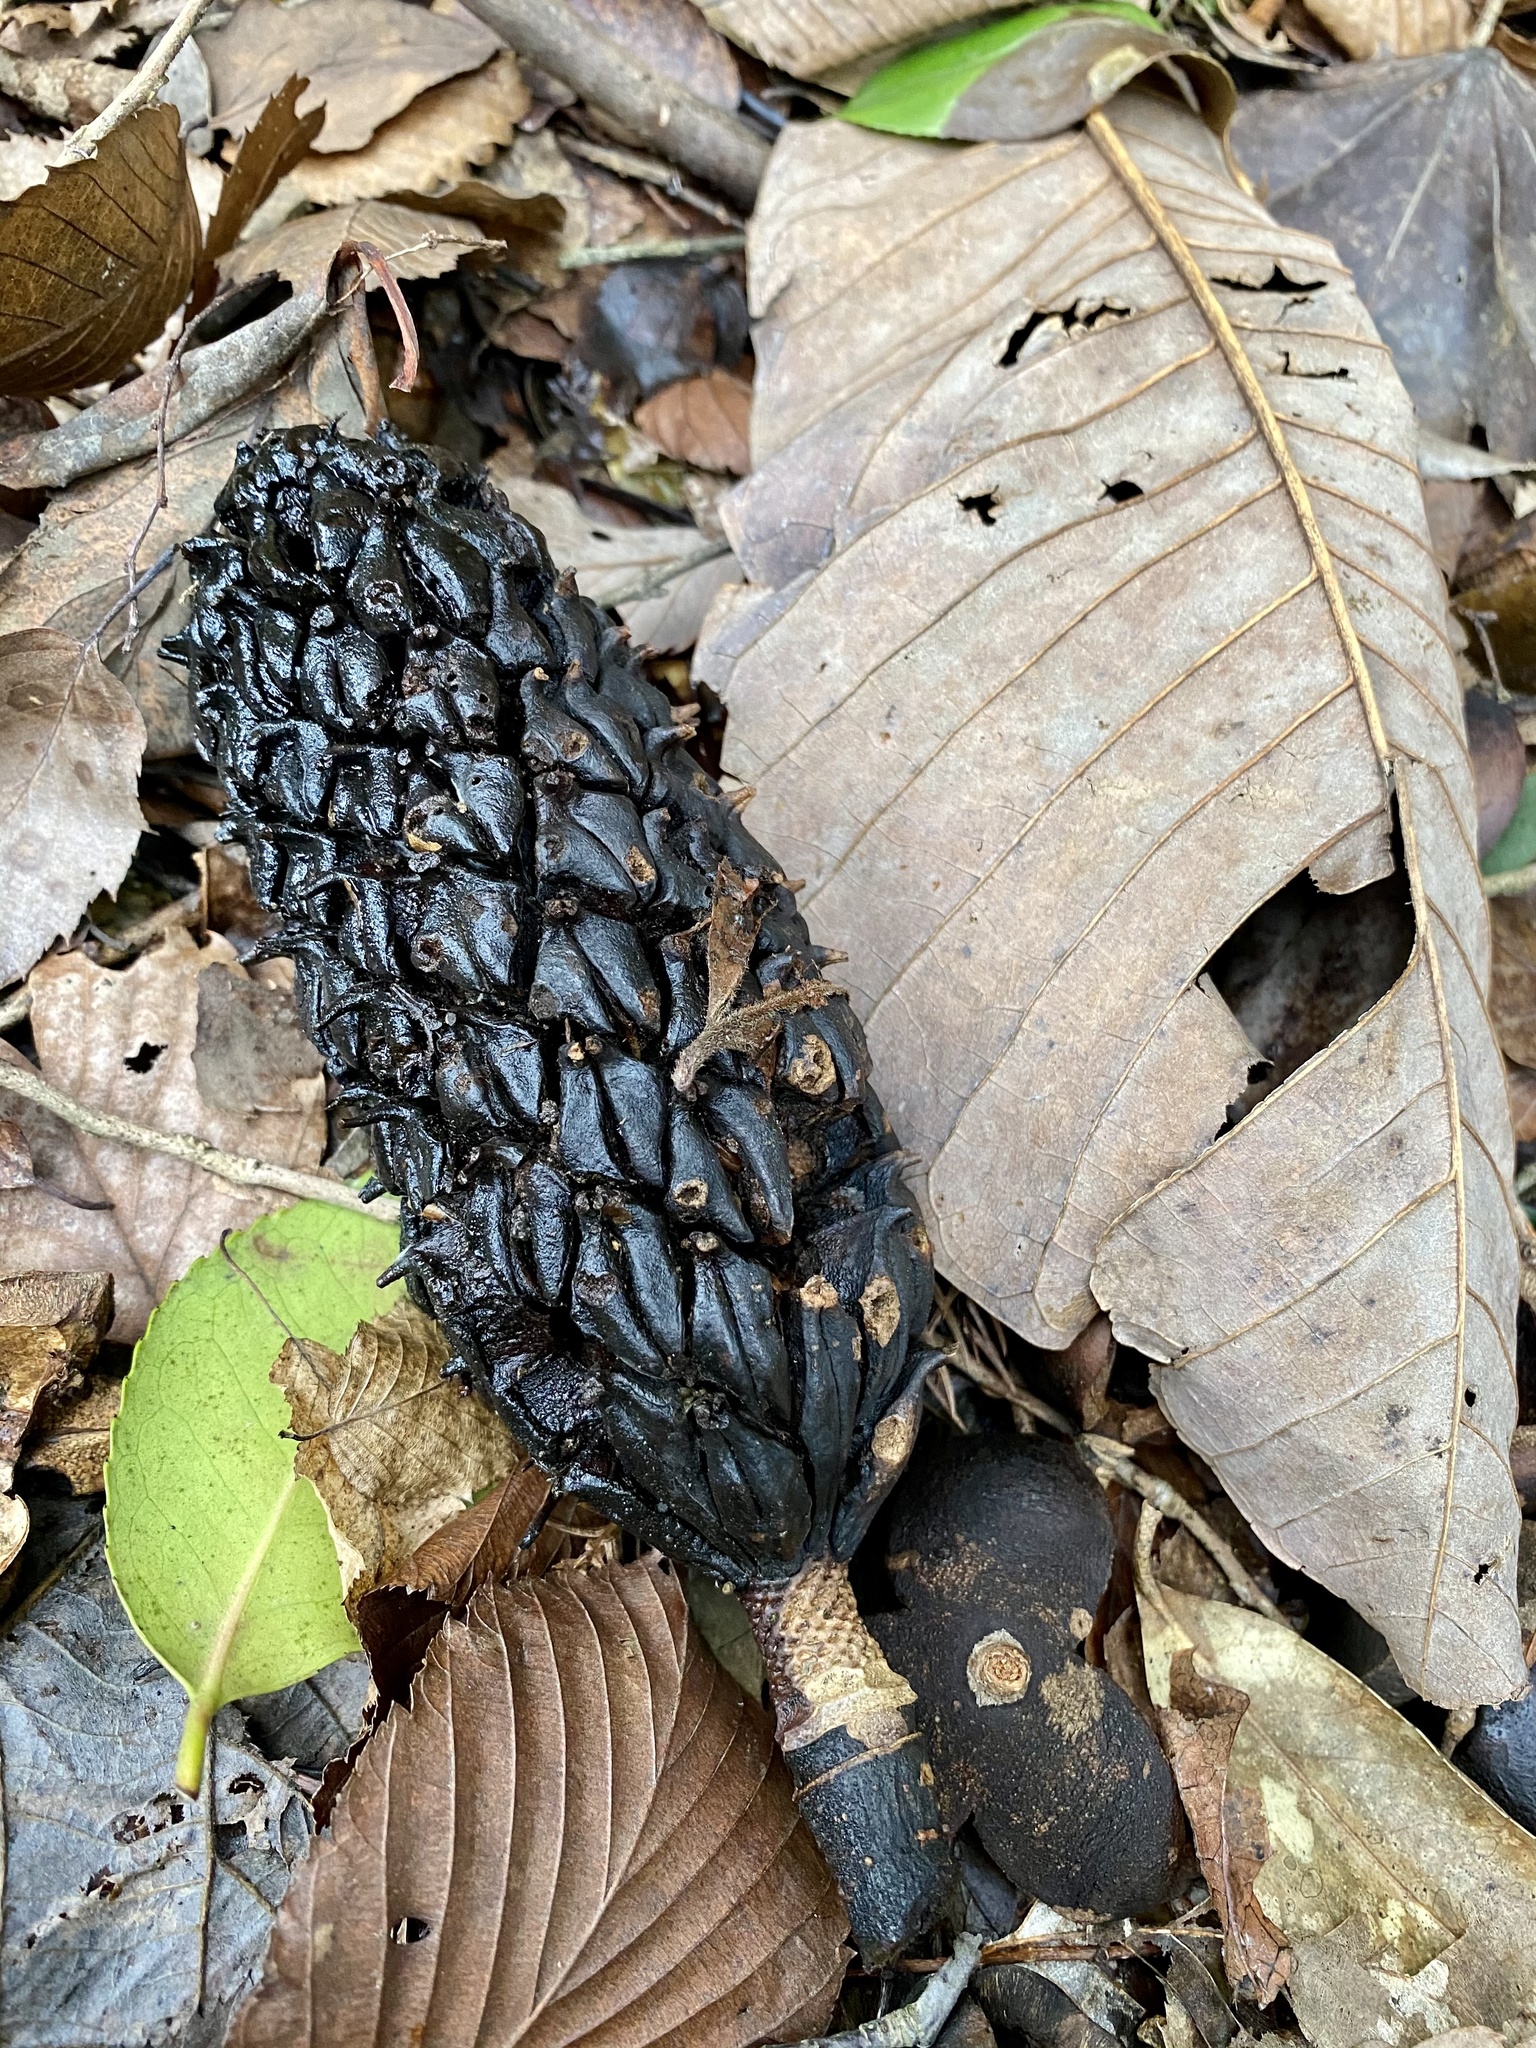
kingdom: Plantae
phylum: Tracheophyta
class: Magnoliopsida
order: Magnoliales
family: Magnoliaceae
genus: Magnolia
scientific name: Magnolia obovata
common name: Japanese whitebark magnolia
